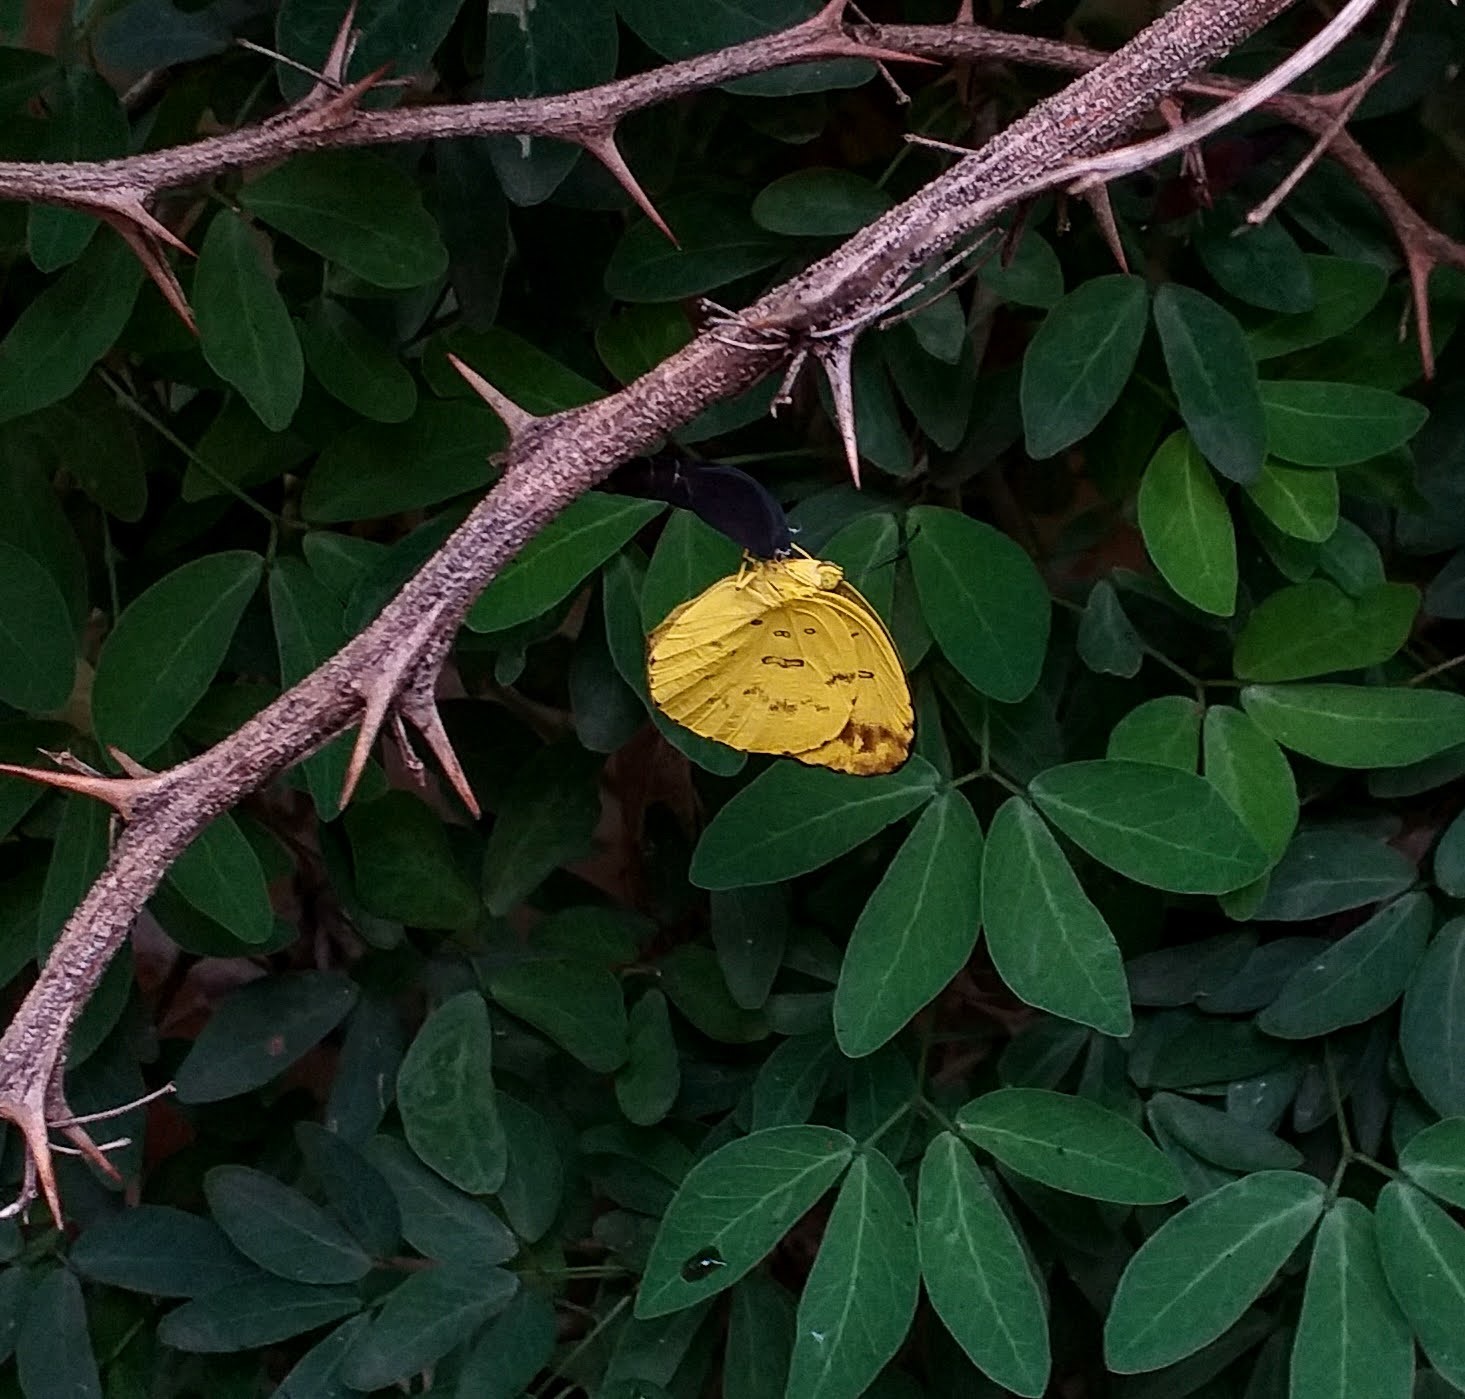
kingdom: Animalia
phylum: Arthropoda
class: Insecta
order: Lepidoptera
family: Pieridae
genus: Eurema
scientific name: Eurema blanda
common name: Three-spot grass yellow
